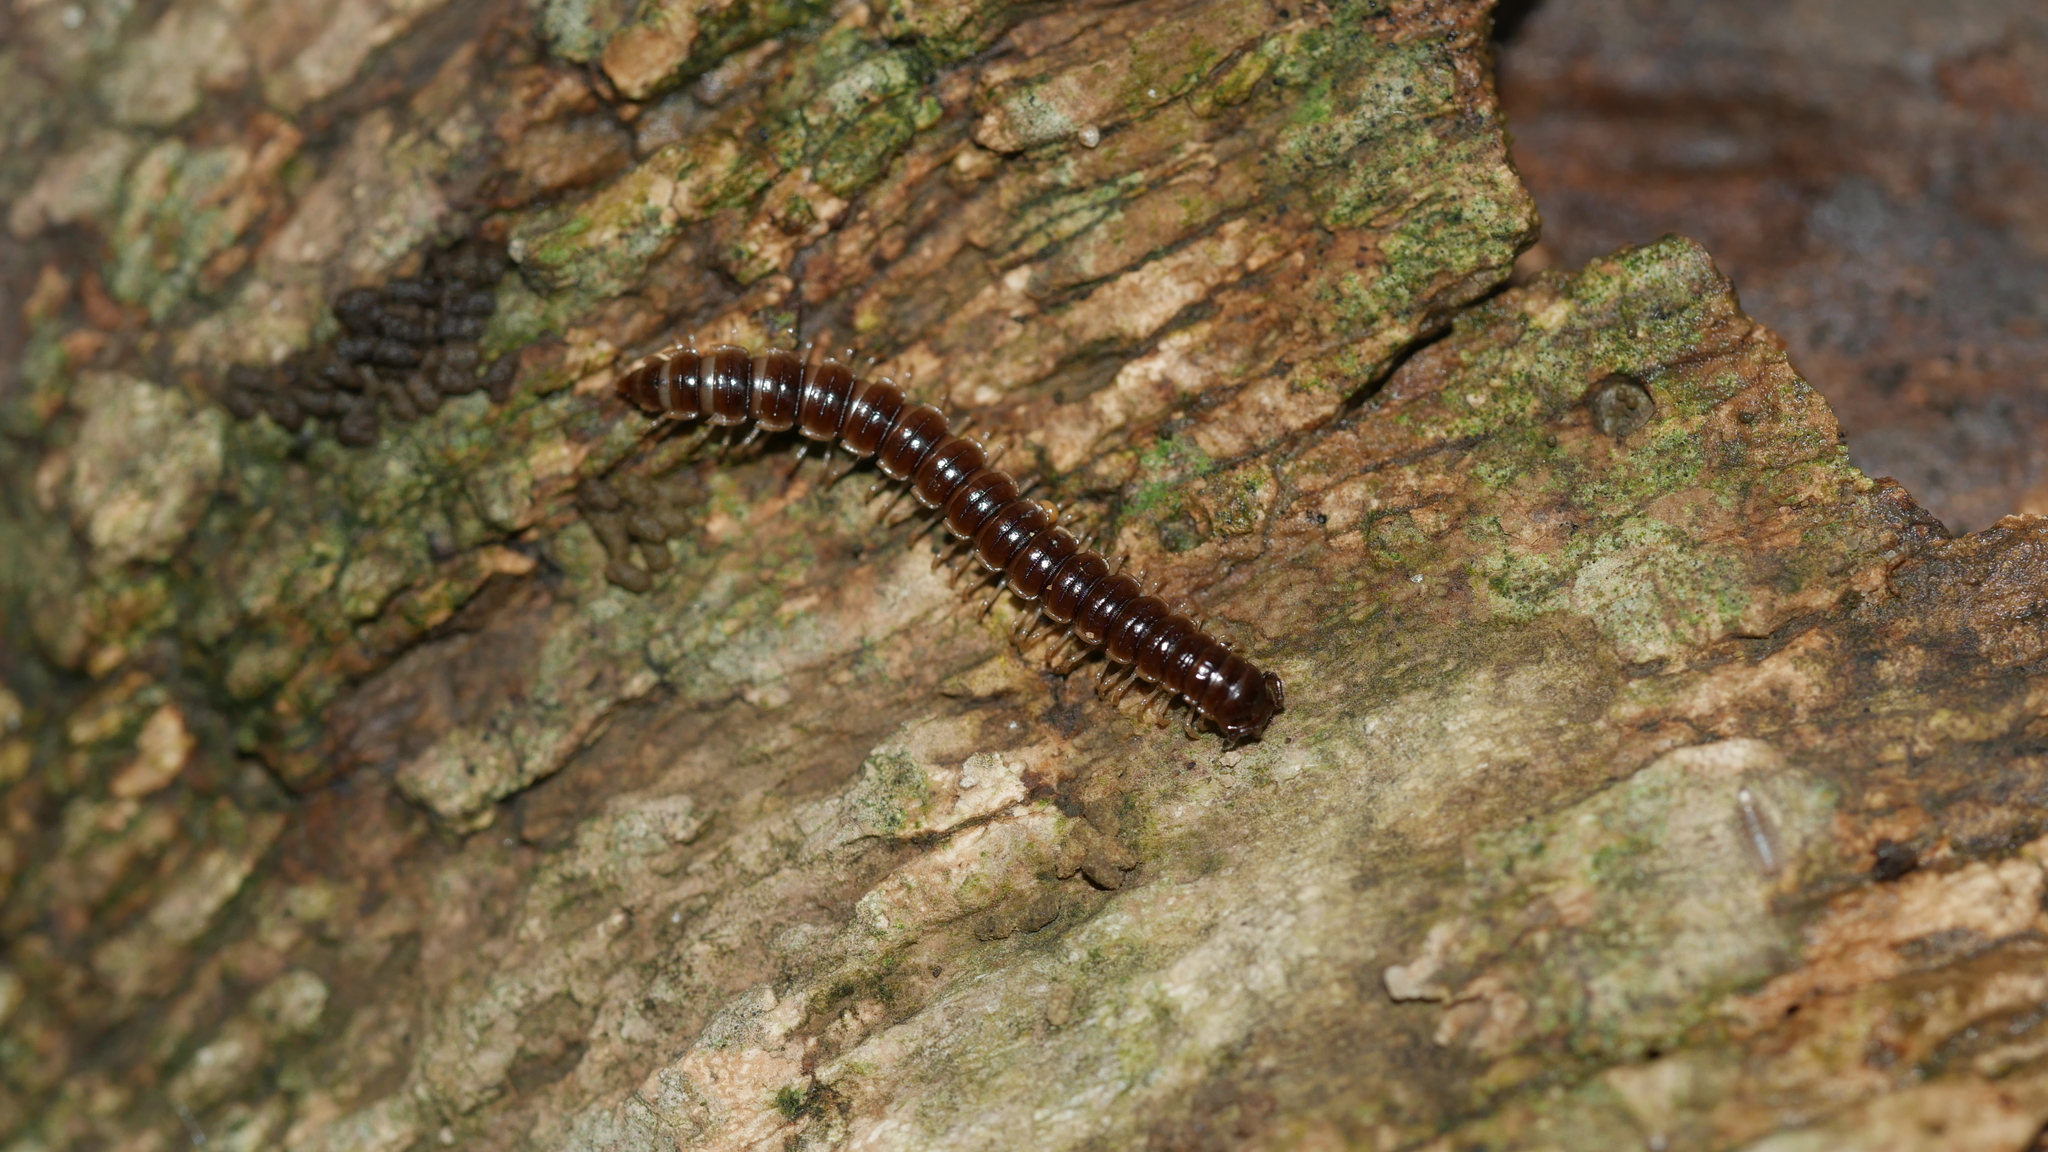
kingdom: Animalia
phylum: Arthropoda
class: Diplopoda
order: Polydesmida
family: Paradoxosomatidae
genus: Oxidus
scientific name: Oxidus gracilis
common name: Greenhouse millipede
